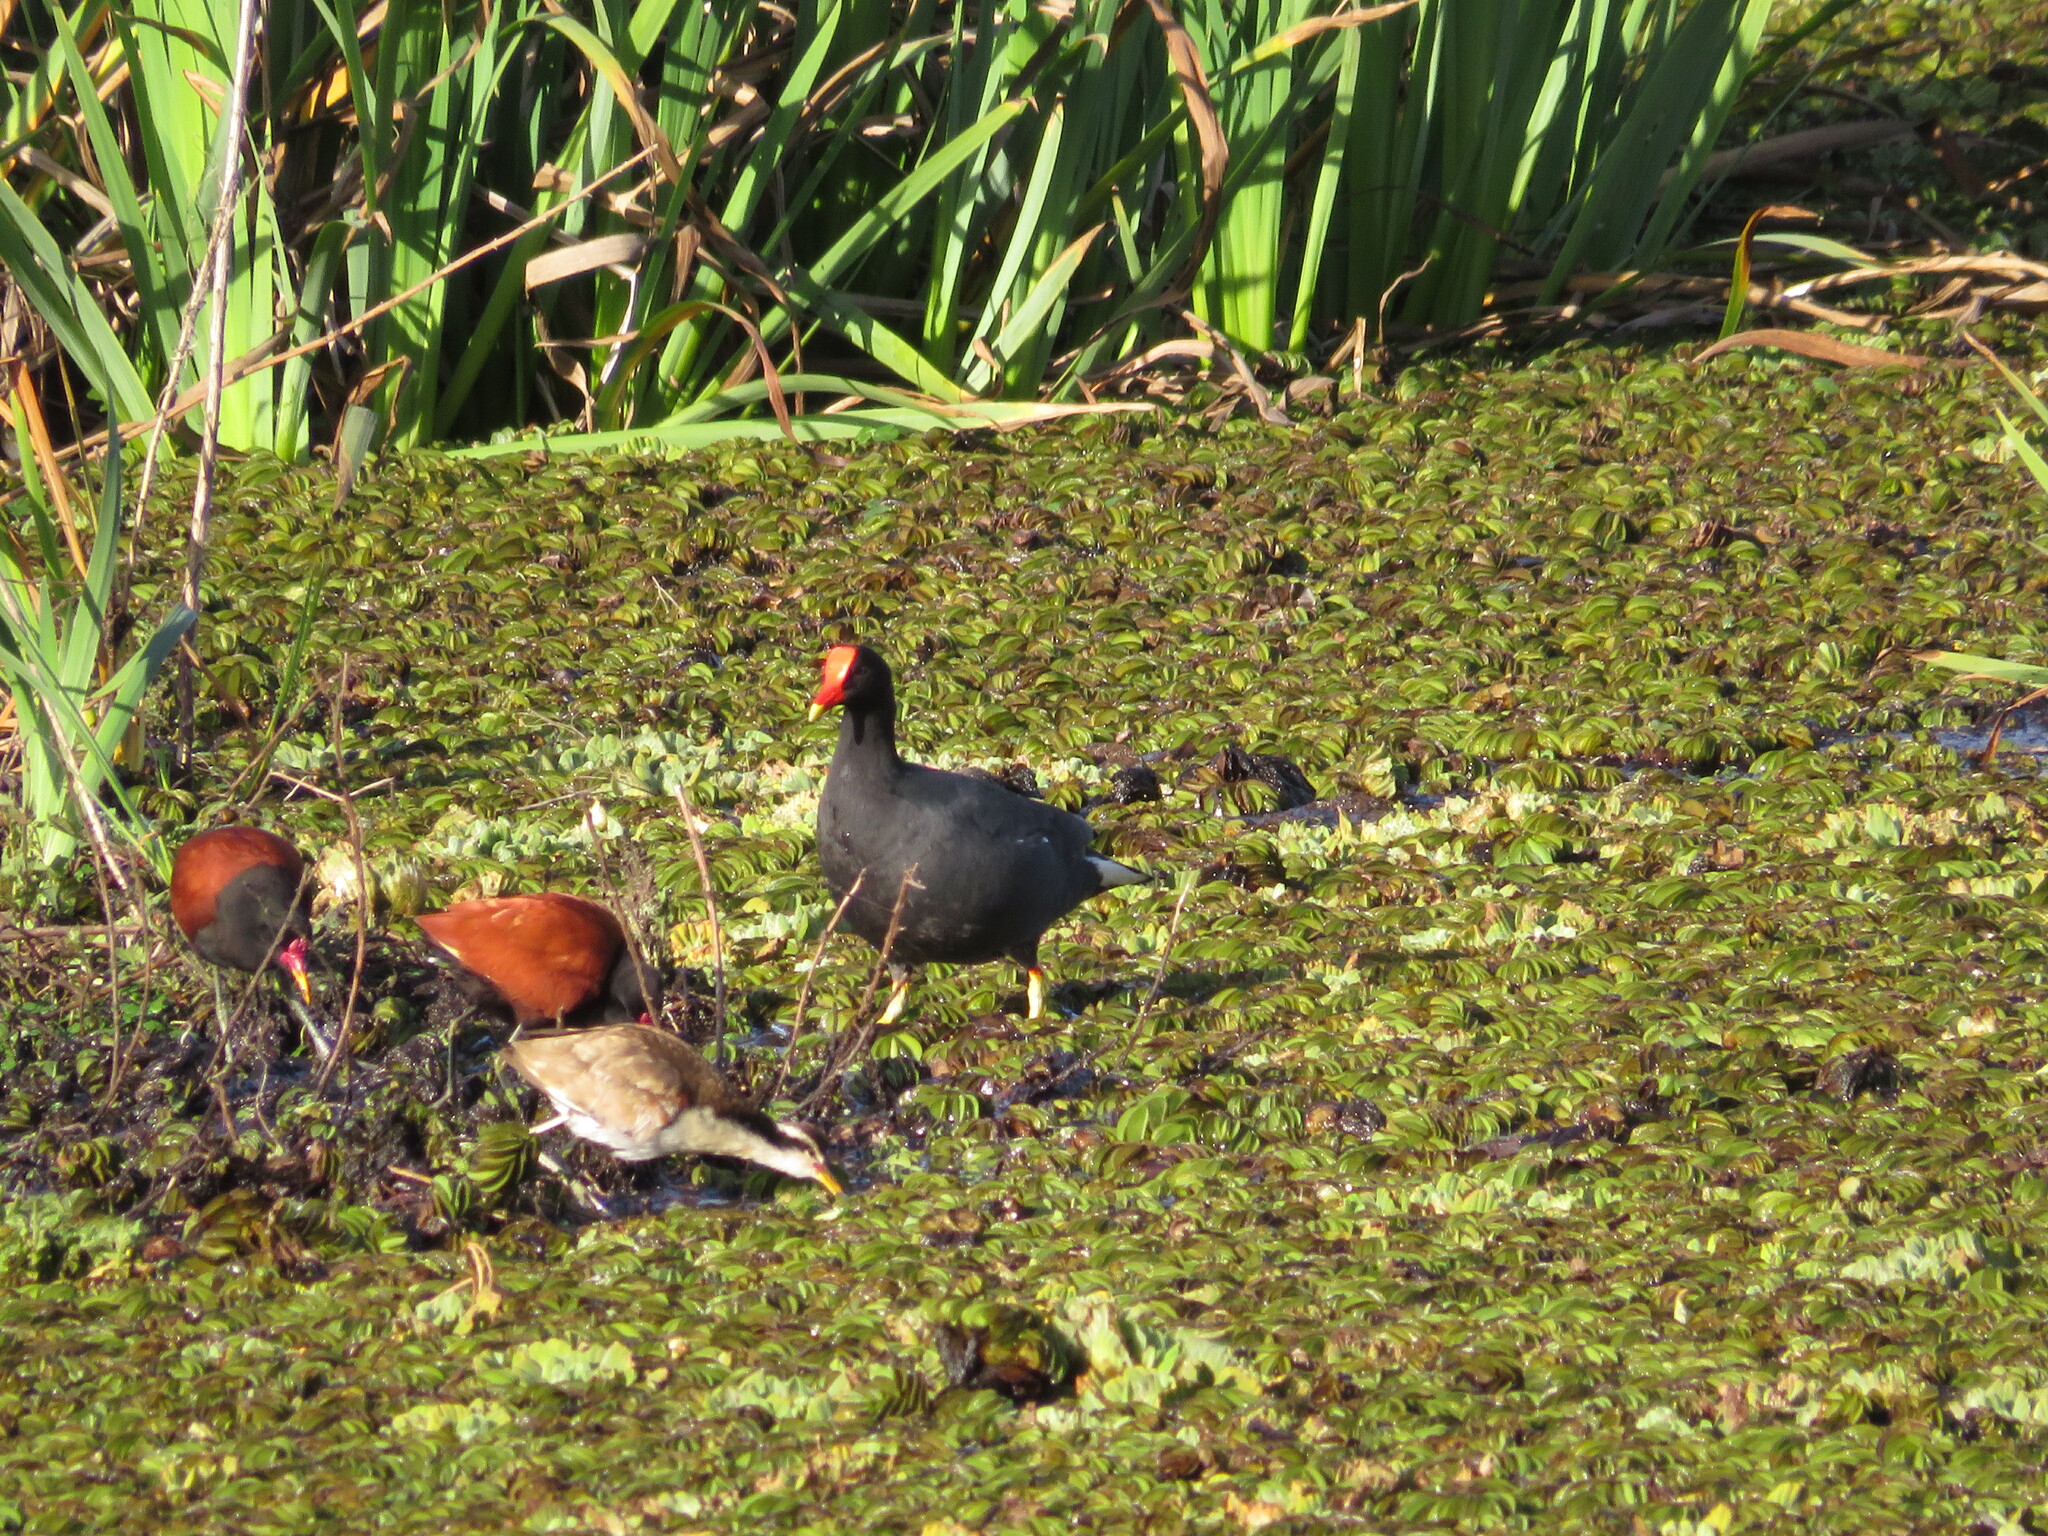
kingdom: Animalia
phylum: Chordata
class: Aves
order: Gruiformes
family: Rallidae
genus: Gallinula
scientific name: Gallinula chloropus
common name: Common moorhen
